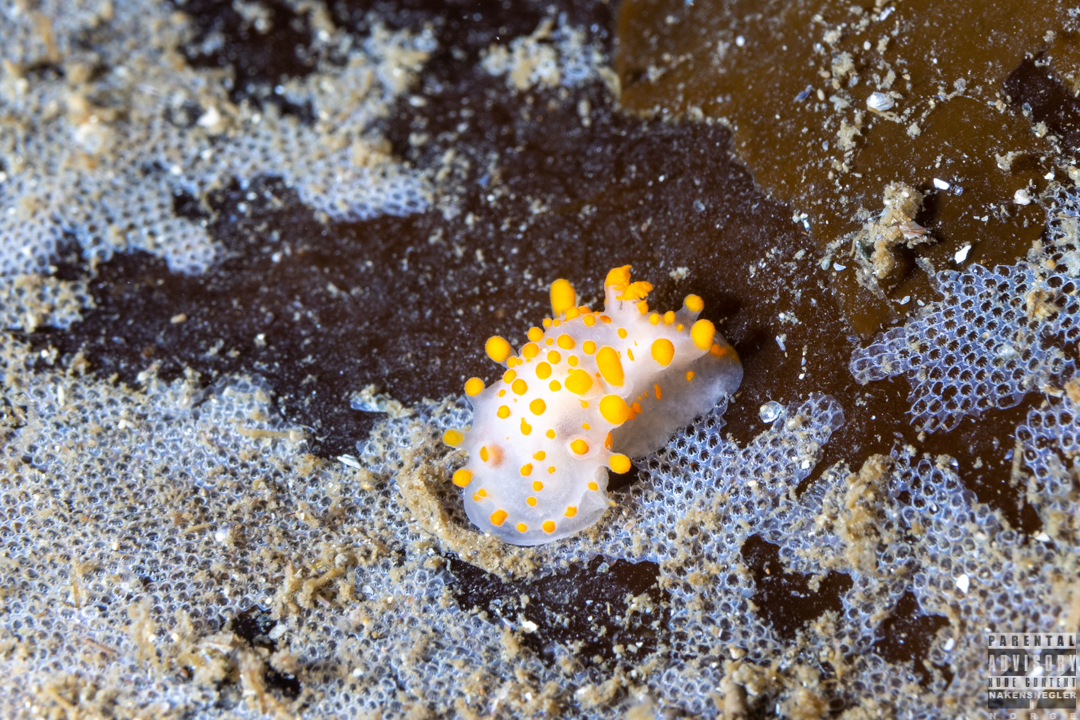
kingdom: Animalia
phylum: Mollusca
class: Gastropoda
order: Nudibranchia
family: Polyceridae
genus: Limacia
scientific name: Limacia clavigera
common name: Orange-clubbed sea slug
